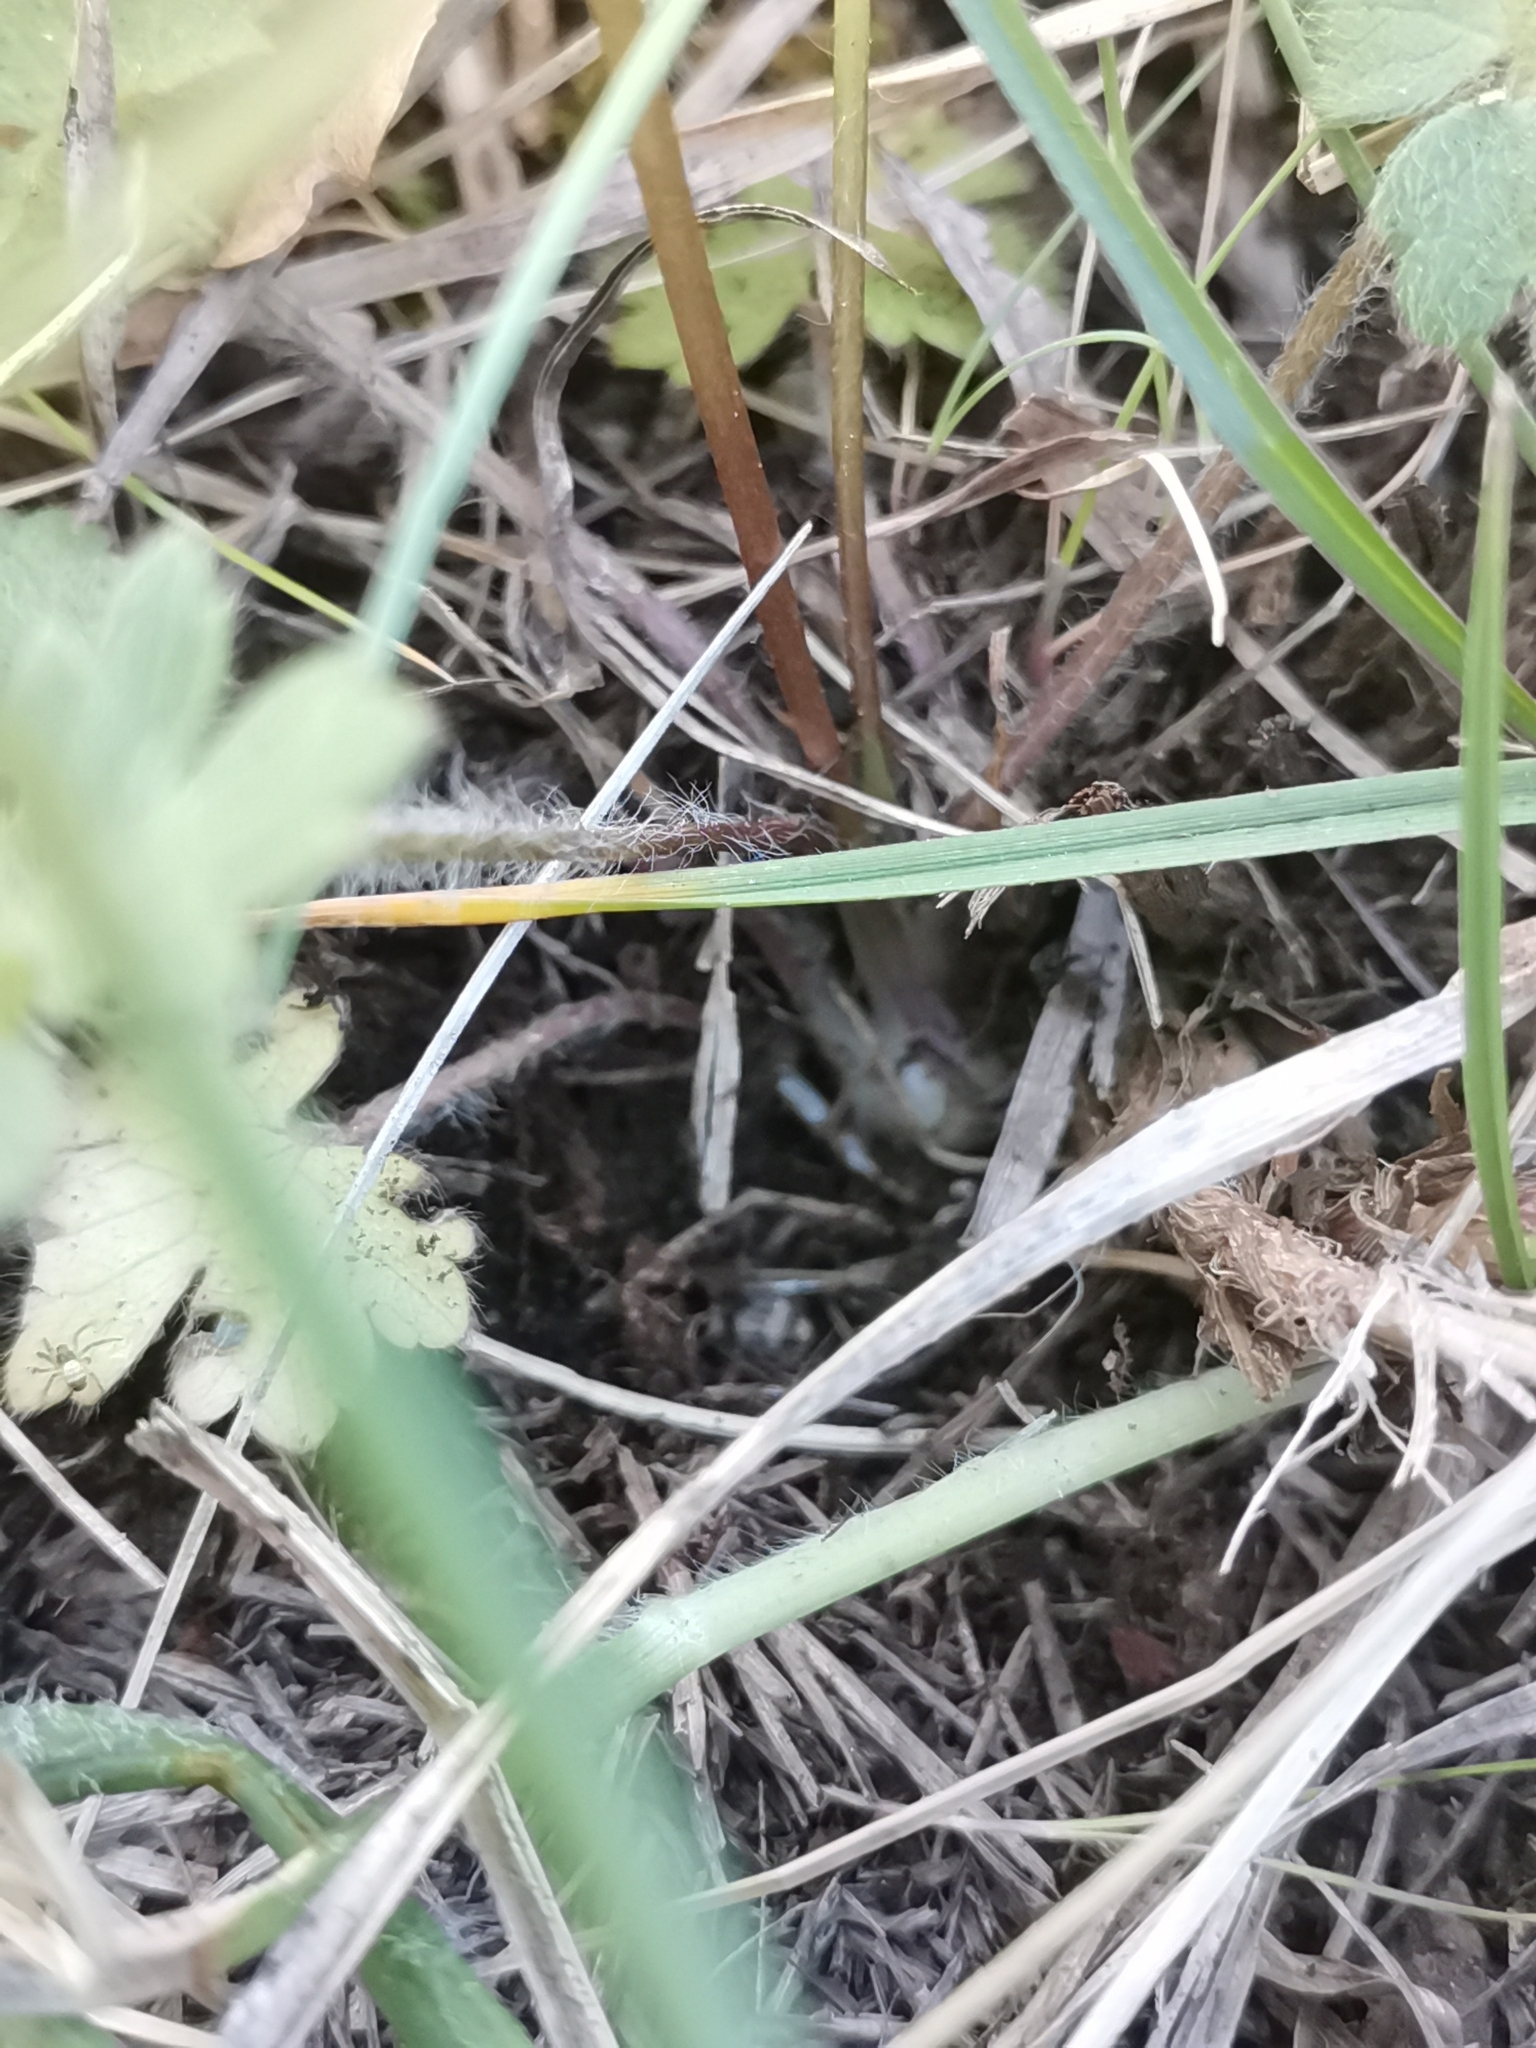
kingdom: Plantae
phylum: Tracheophyta
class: Magnoliopsida
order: Ranunculales
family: Ranunculaceae
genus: Ranunculus
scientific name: Ranunculus bulbosus
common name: Bulbous buttercup
